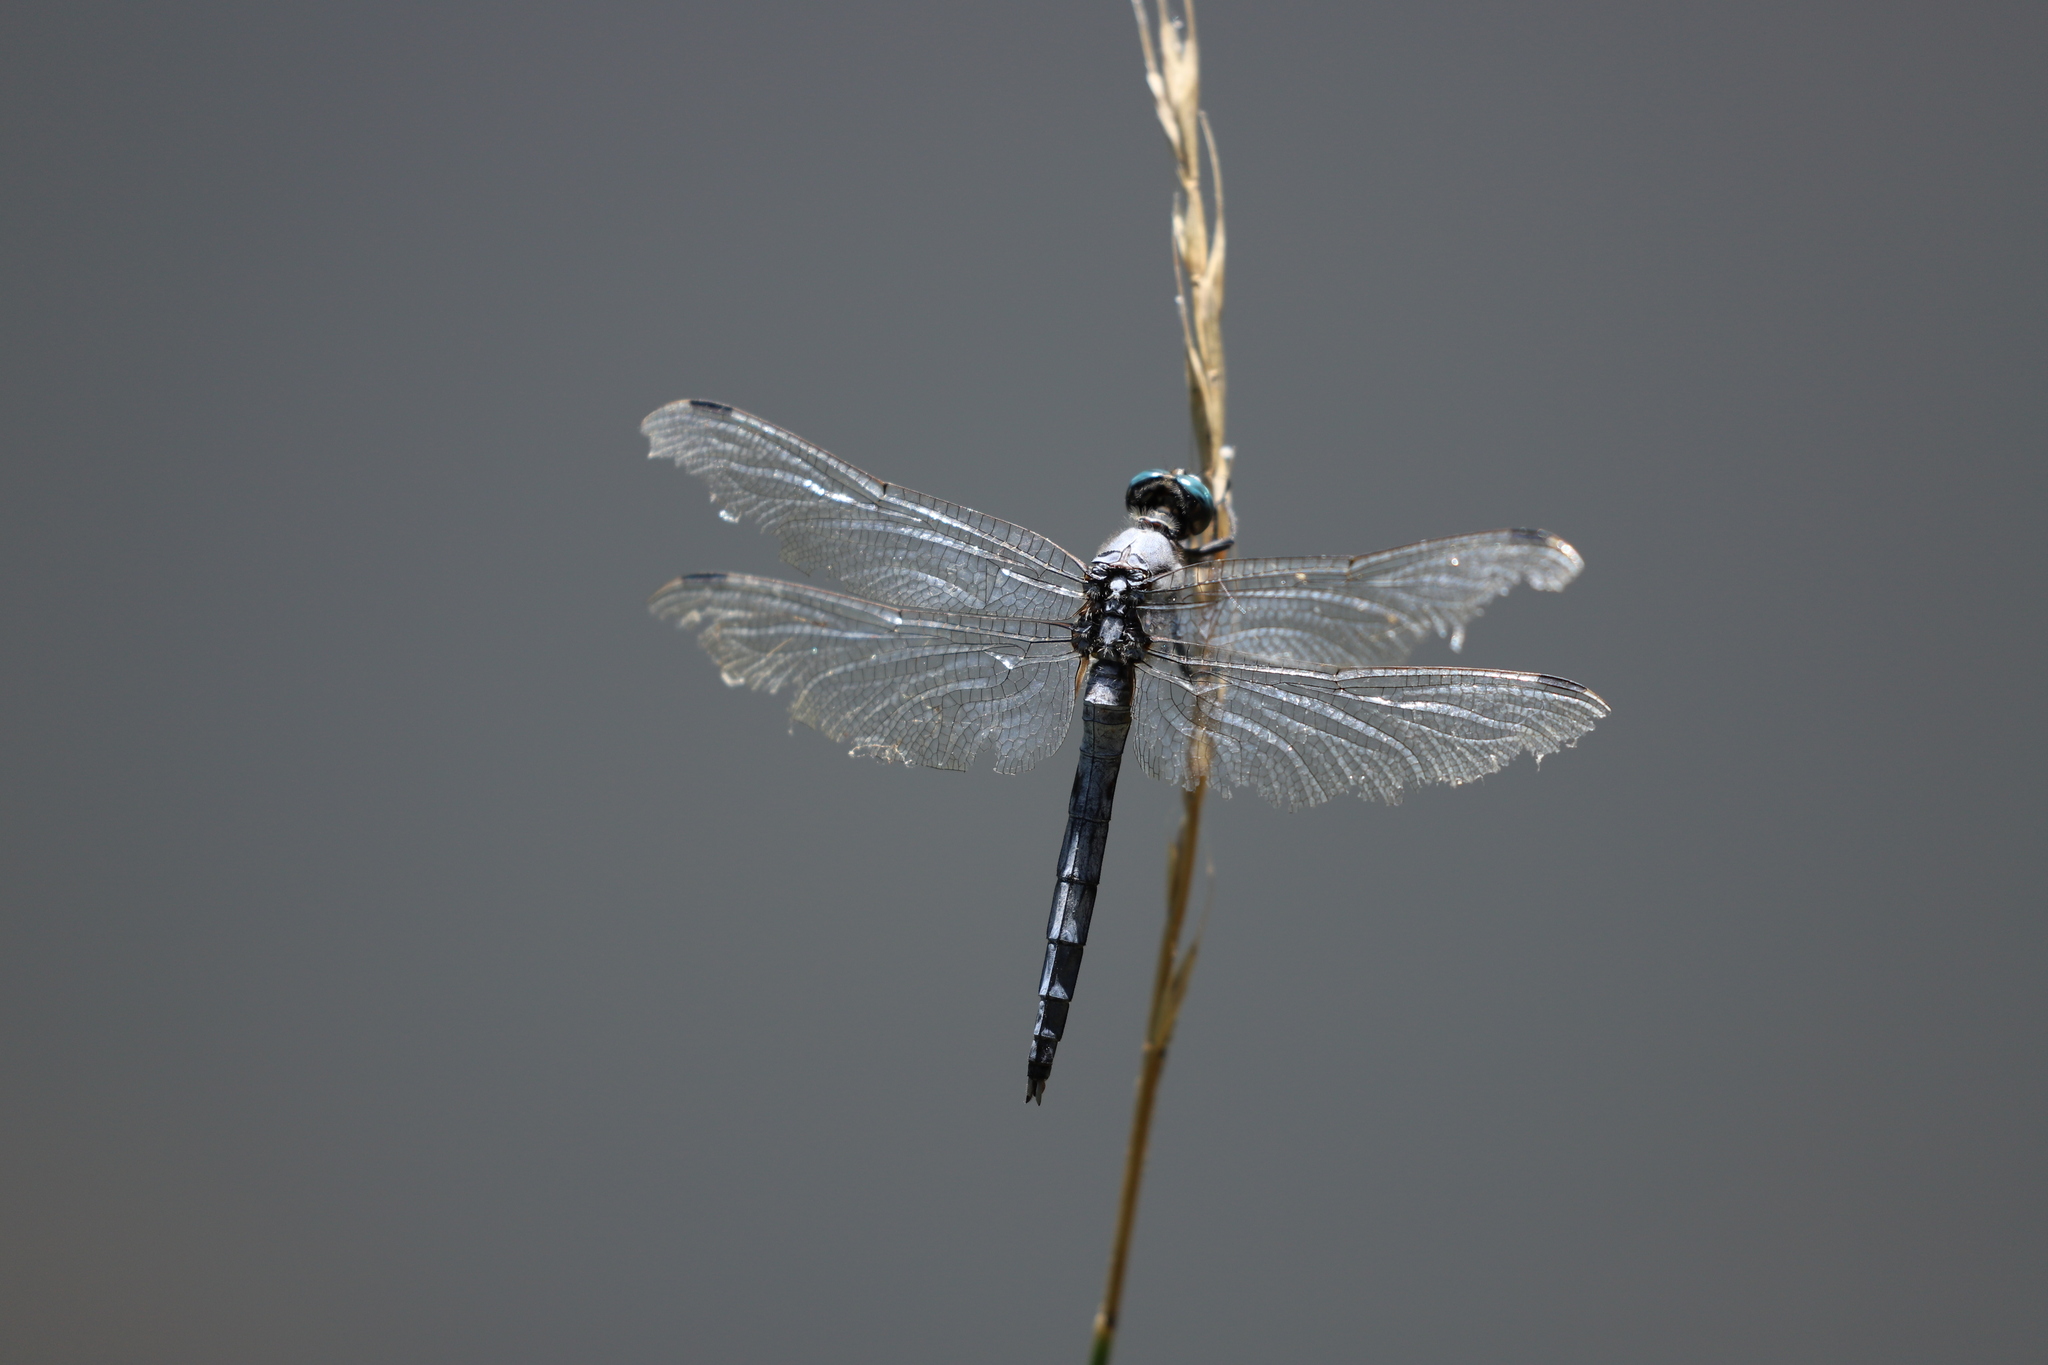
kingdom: Animalia
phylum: Arthropoda
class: Insecta
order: Odonata
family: Libellulidae
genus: Orthetrum
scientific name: Orthetrum albistylum
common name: White-tailed skimmer
